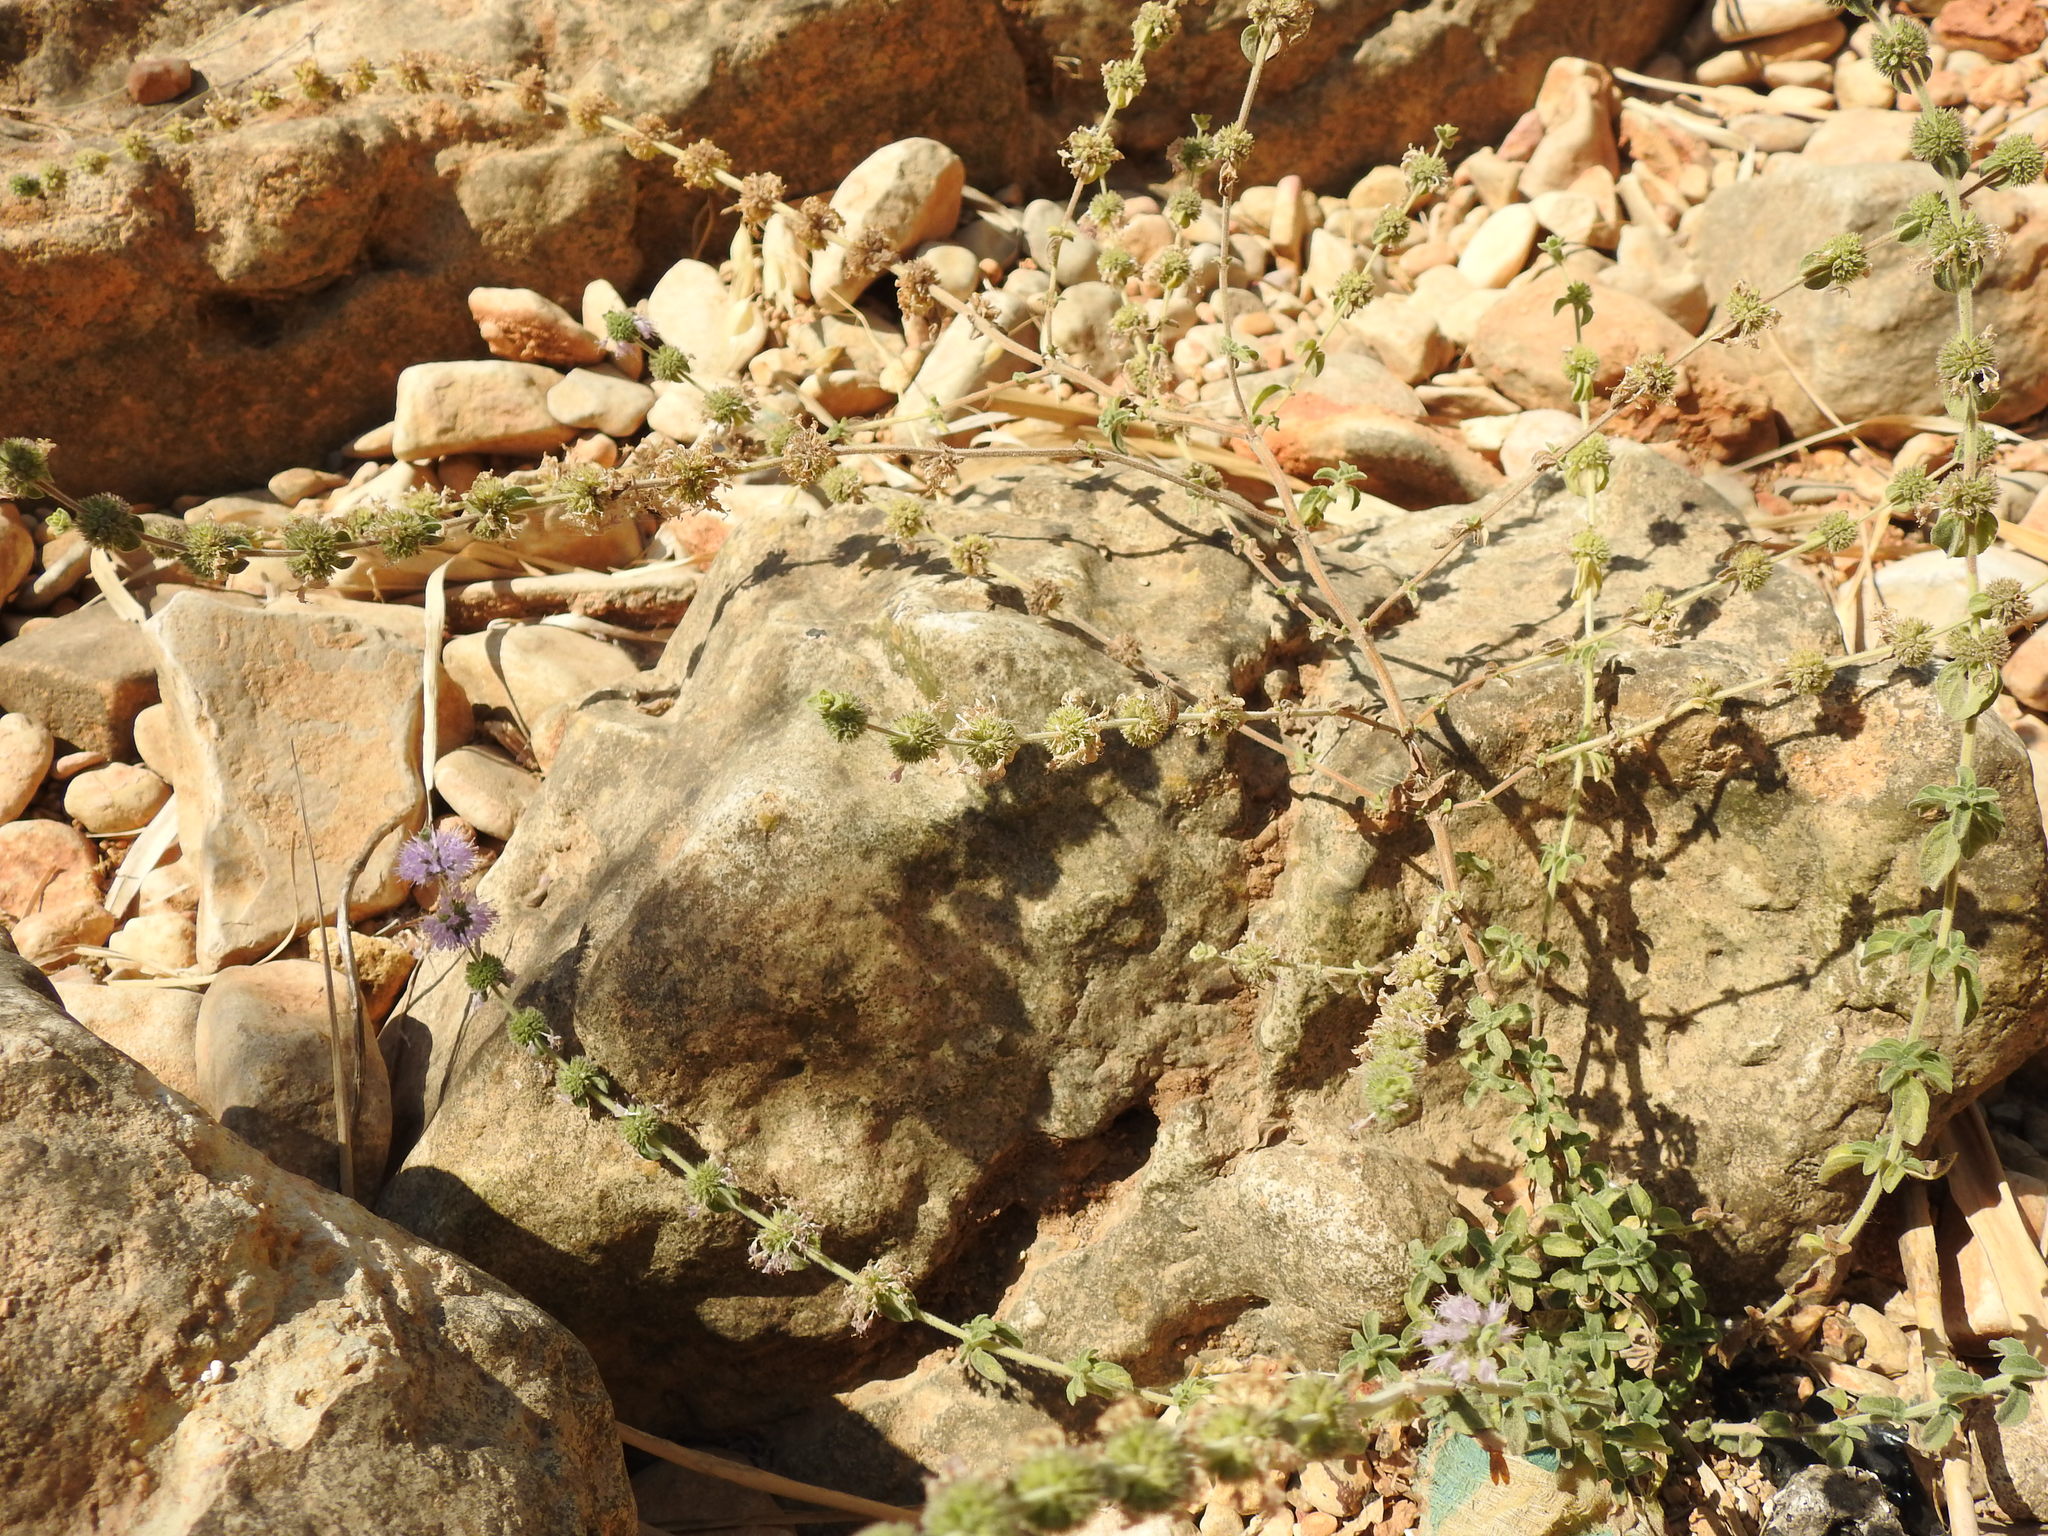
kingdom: Plantae
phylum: Tracheophyta
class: Magnoliopsida
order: Lamiales
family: Lamiaceae
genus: Mentha
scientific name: Mentha pulegium
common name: Pennyroyal
